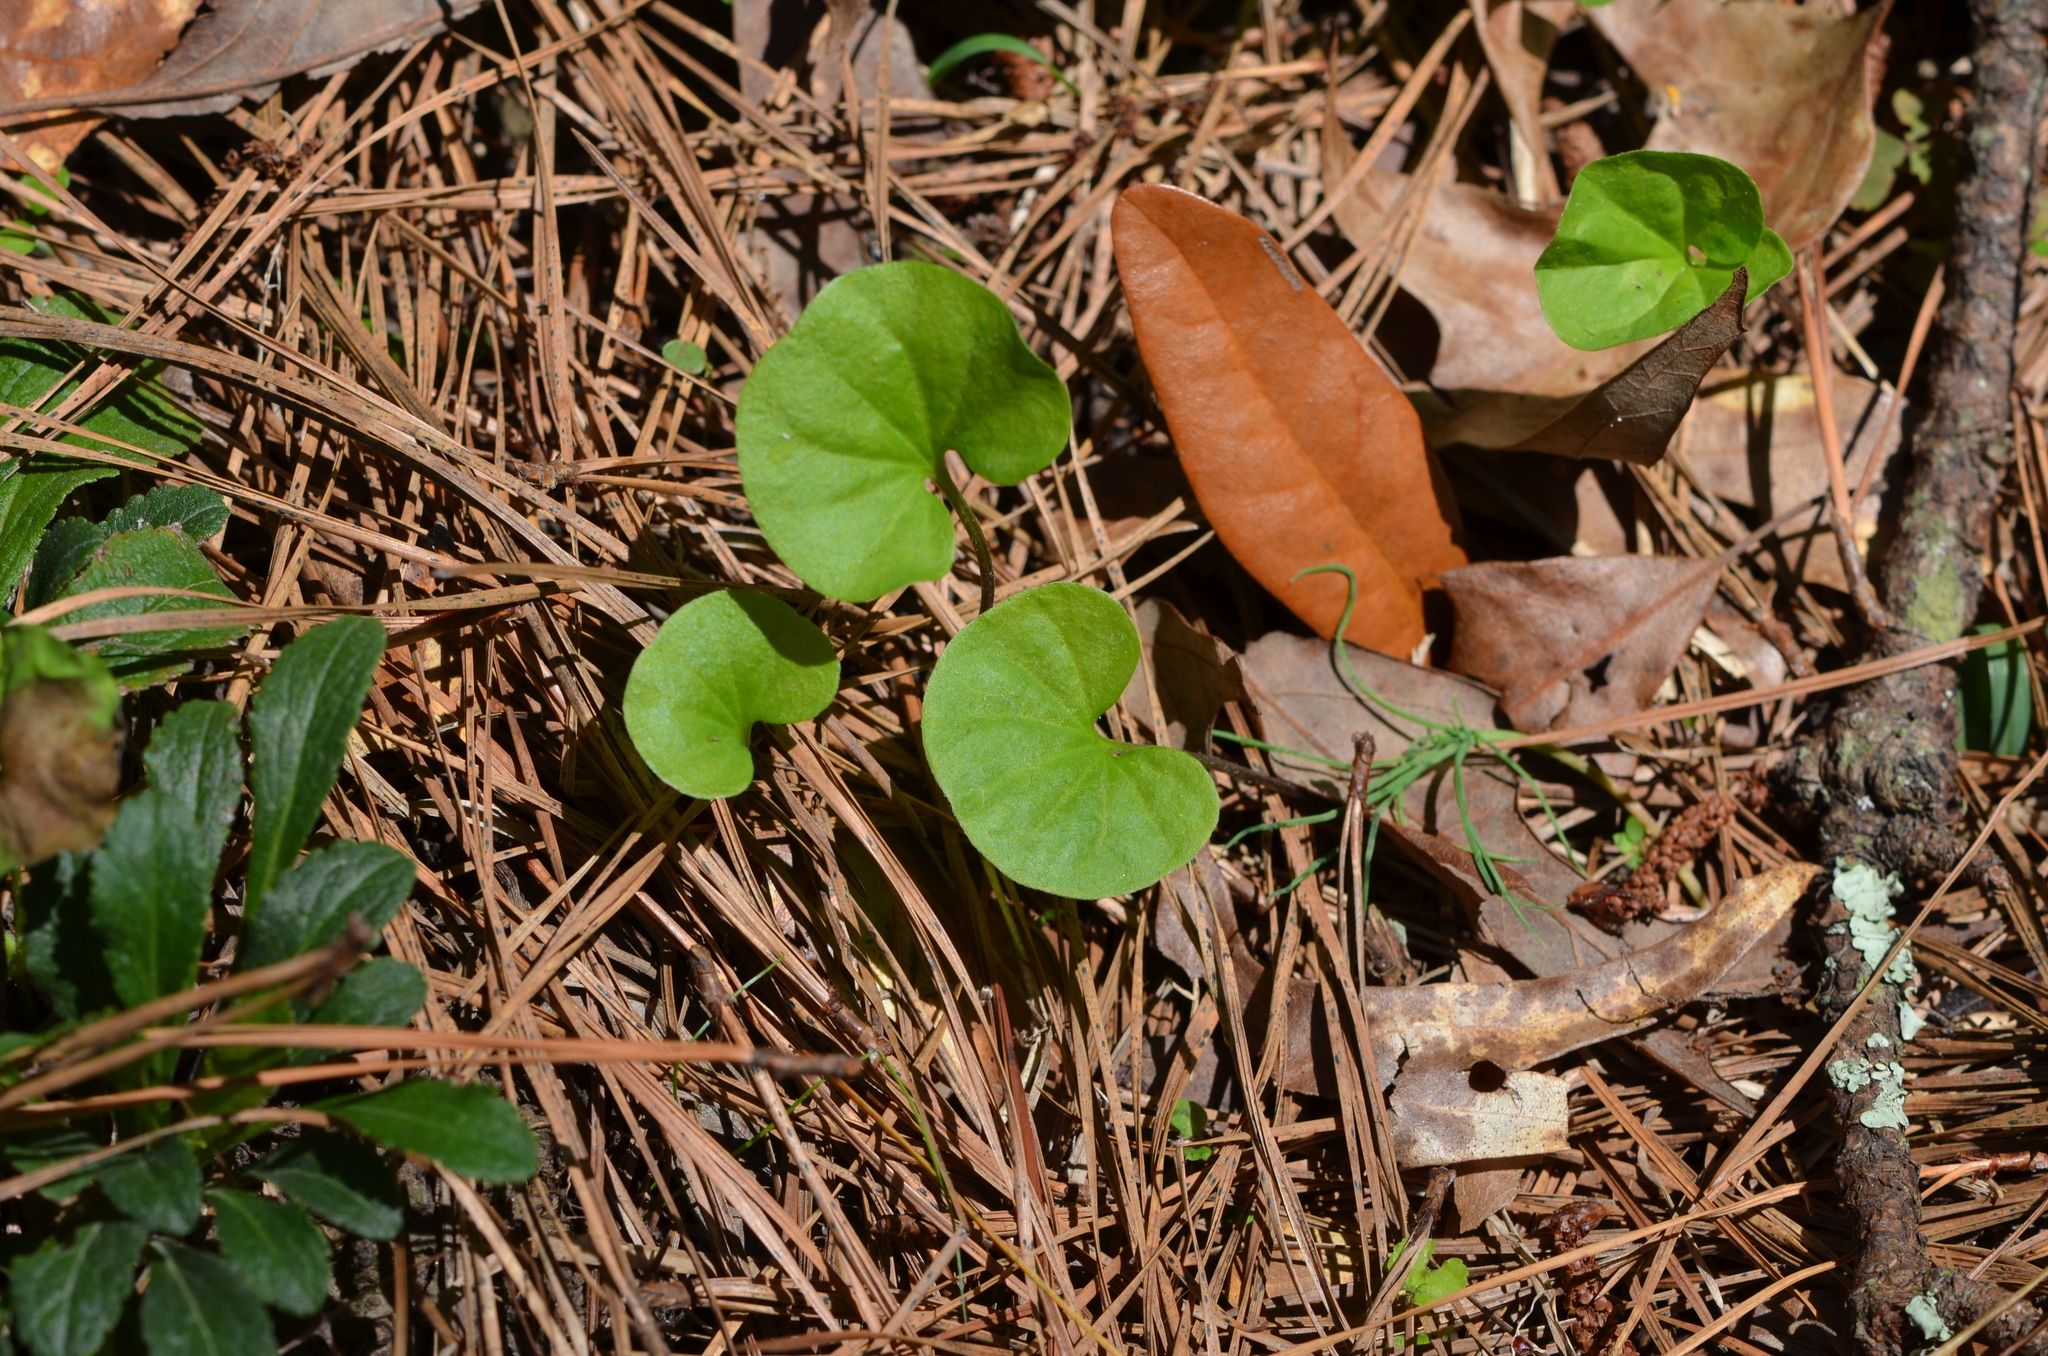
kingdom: Plantae
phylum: Tracheophyta
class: Magnoliopsida
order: Solanales
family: Convolvulaceae
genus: Dichondra
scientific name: Dichondra carolinensis
